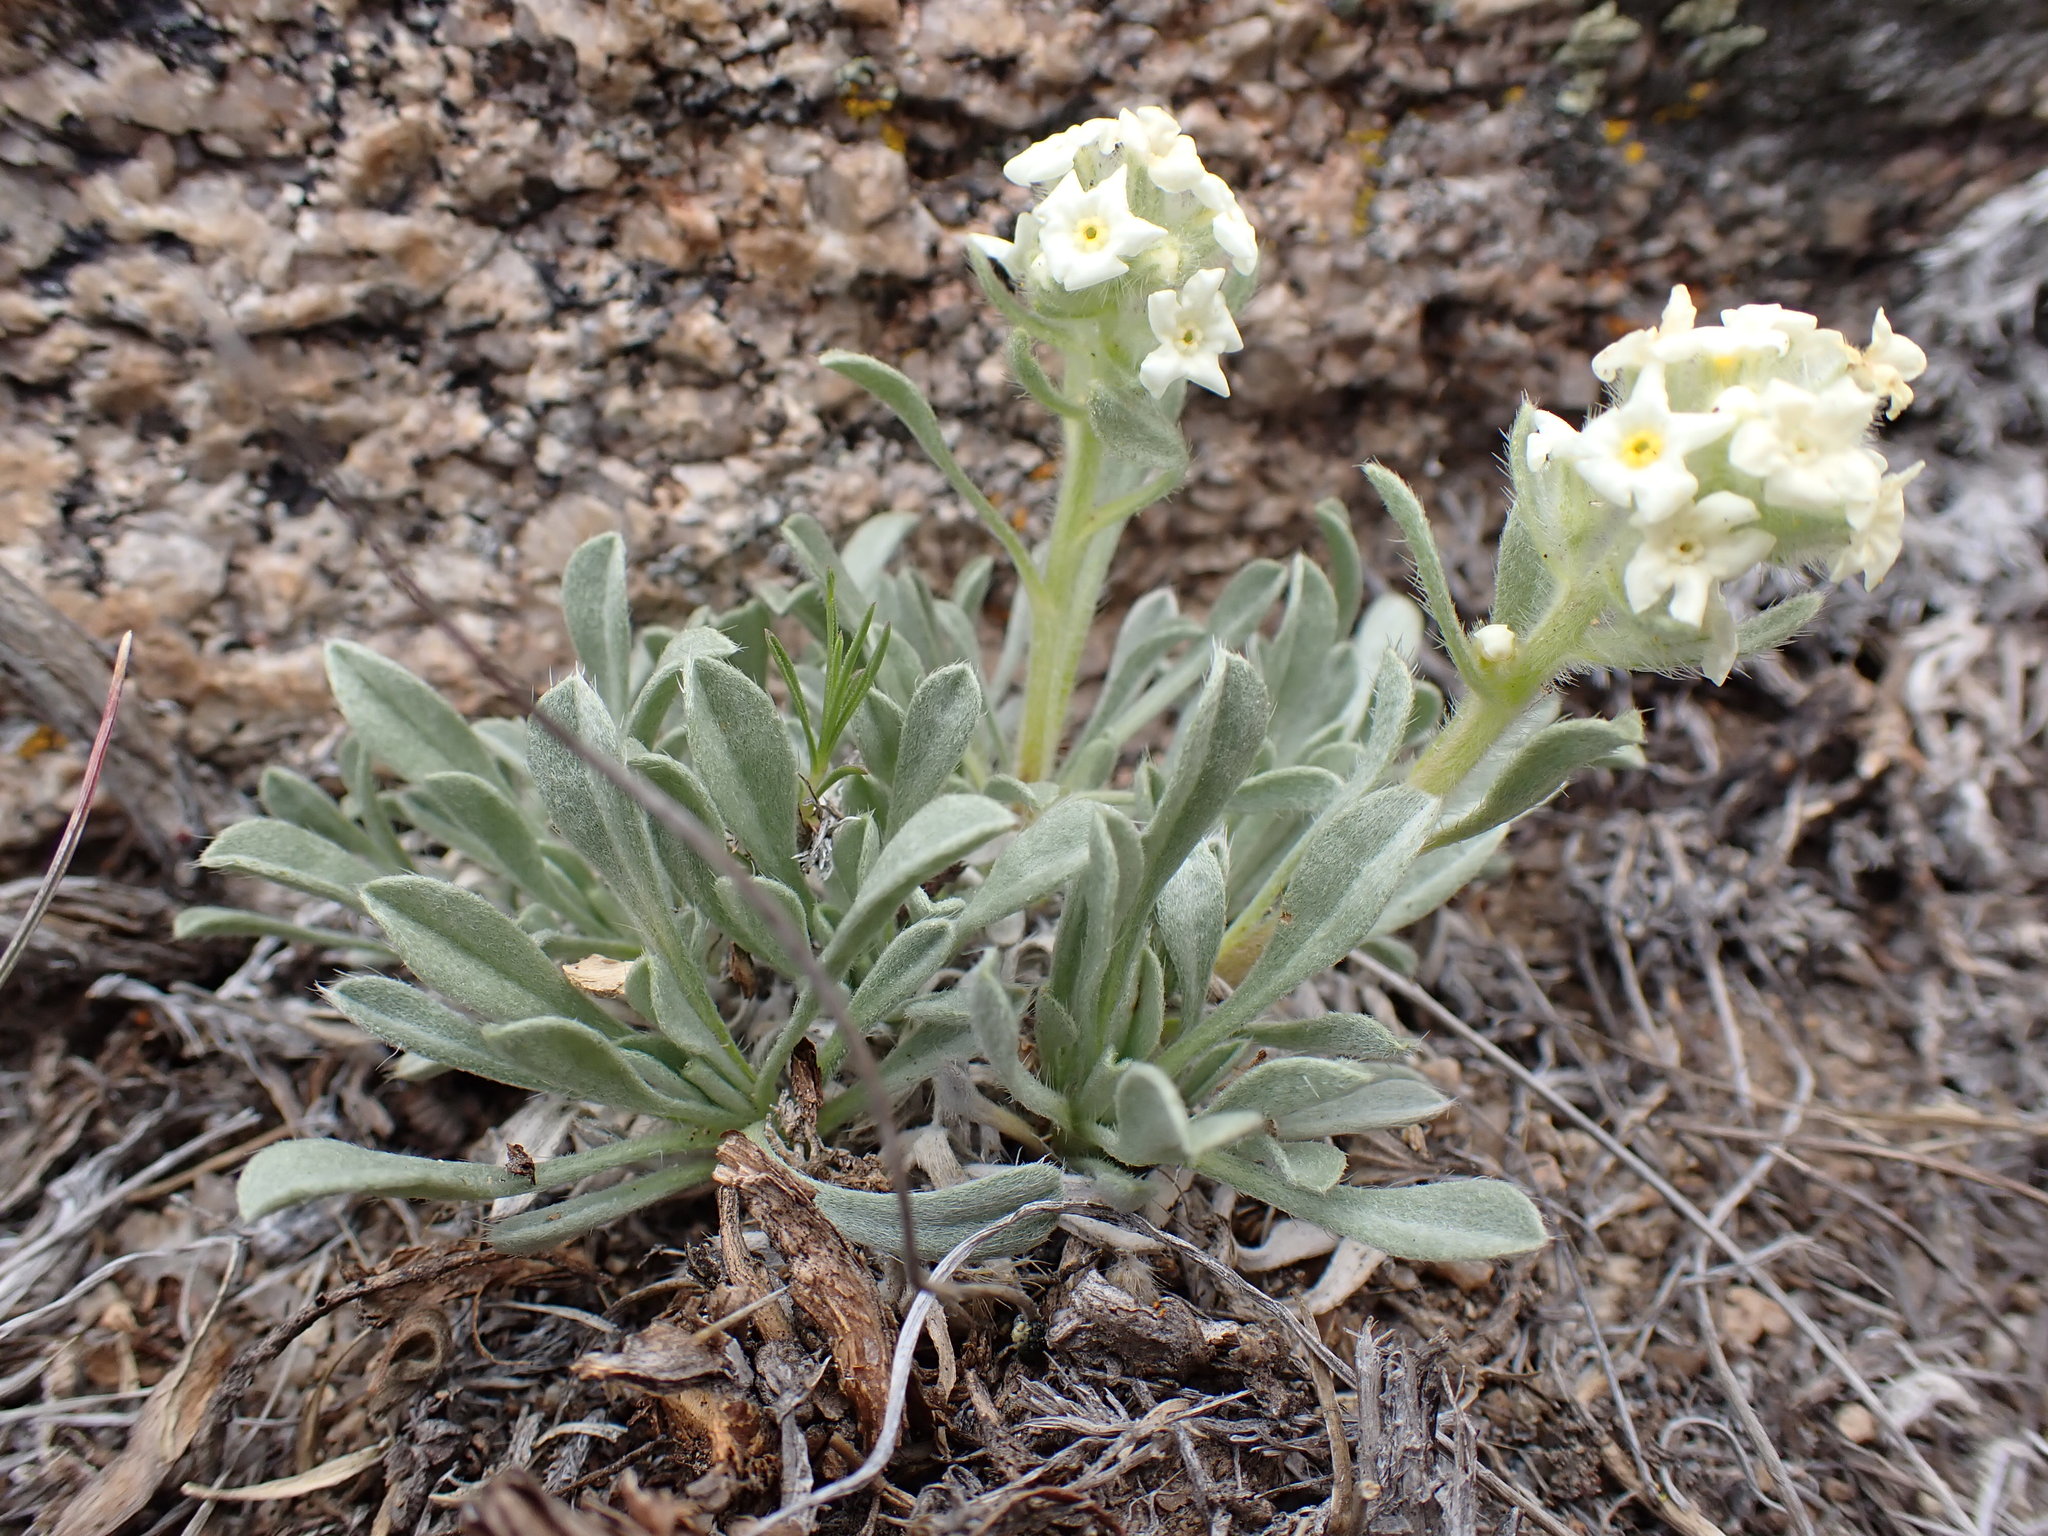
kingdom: Plantae
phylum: Tracheophyta
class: Magnoliopsida
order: Boraginales
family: Boraginaceae
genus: Oreocarya
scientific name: Oreocarya humilis
